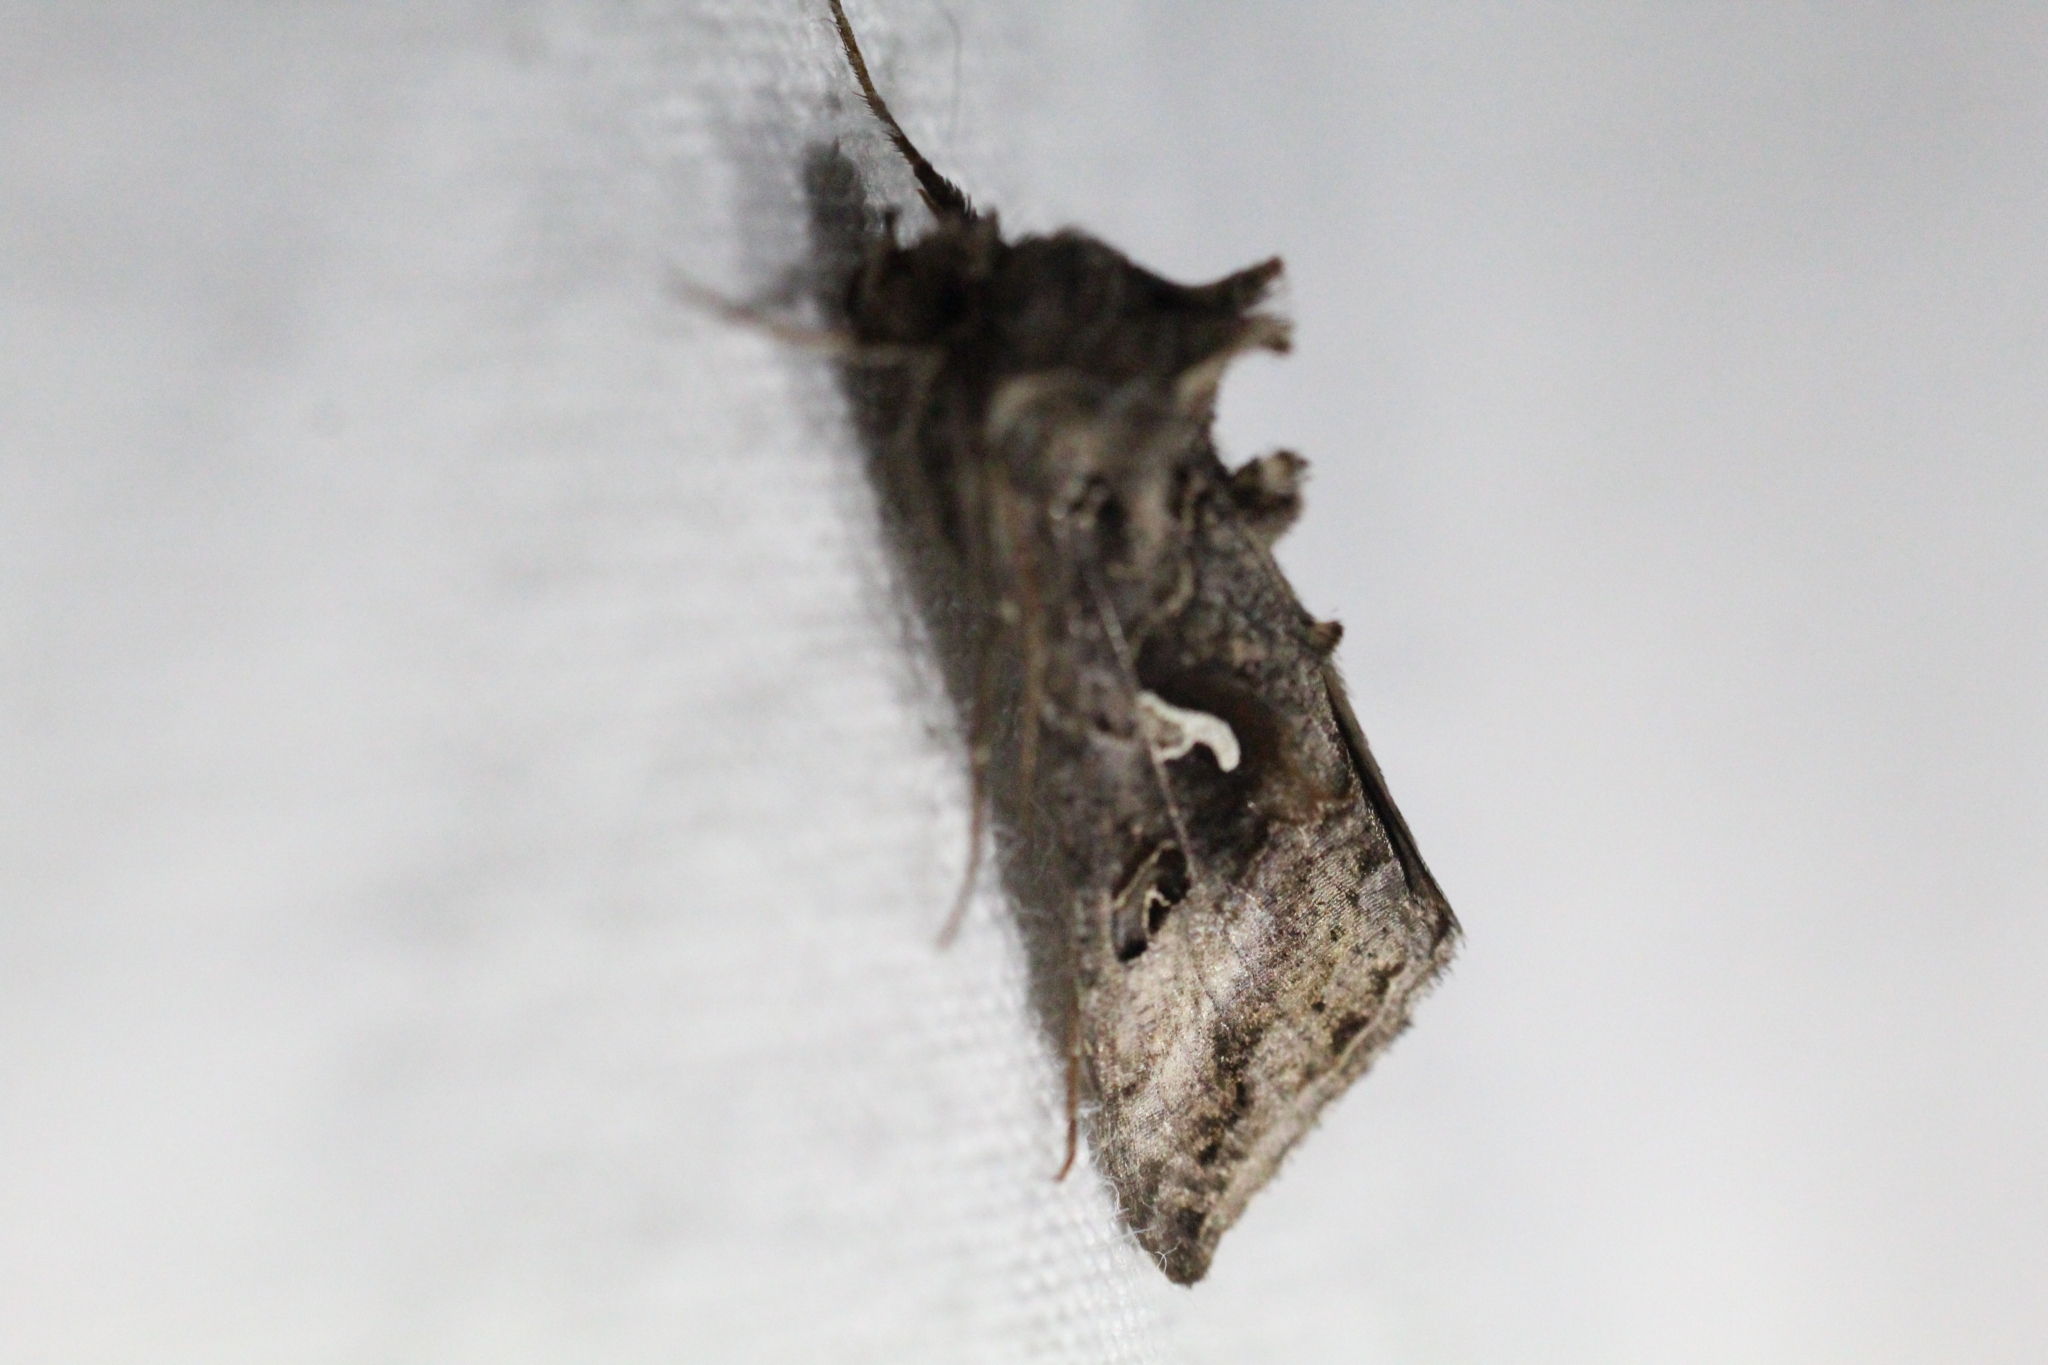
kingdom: Animalia
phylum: Arthropoda
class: Insecta
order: Lepidoptera
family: Noctuidae
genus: Autographa
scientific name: Autographa gamma
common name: Silver y
